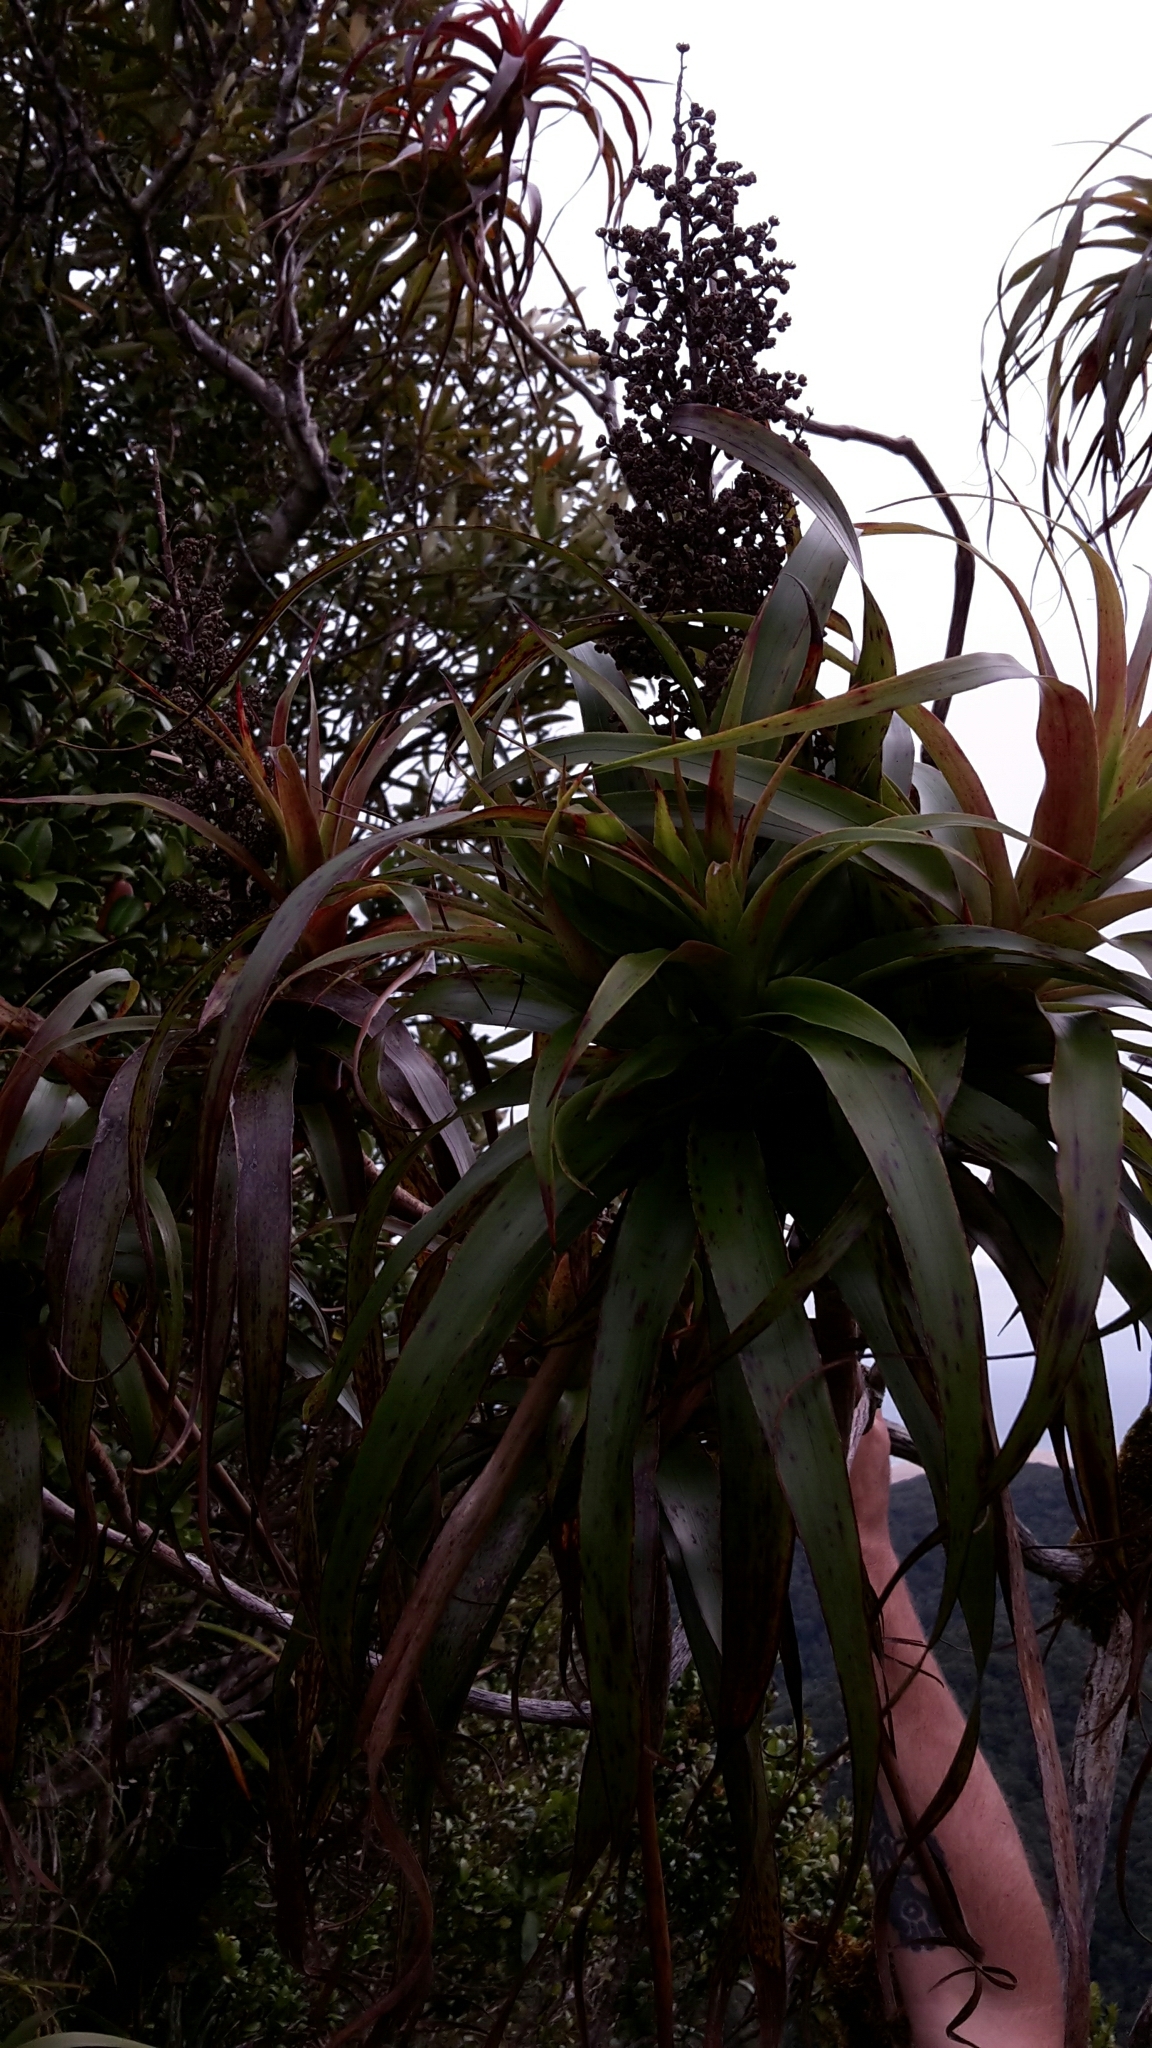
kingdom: Plantae
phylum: Tracheophyta
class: Magnoliopsida
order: Ericales
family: Ericaceae
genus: Dracophyllum
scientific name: Dracophyllum traversii
